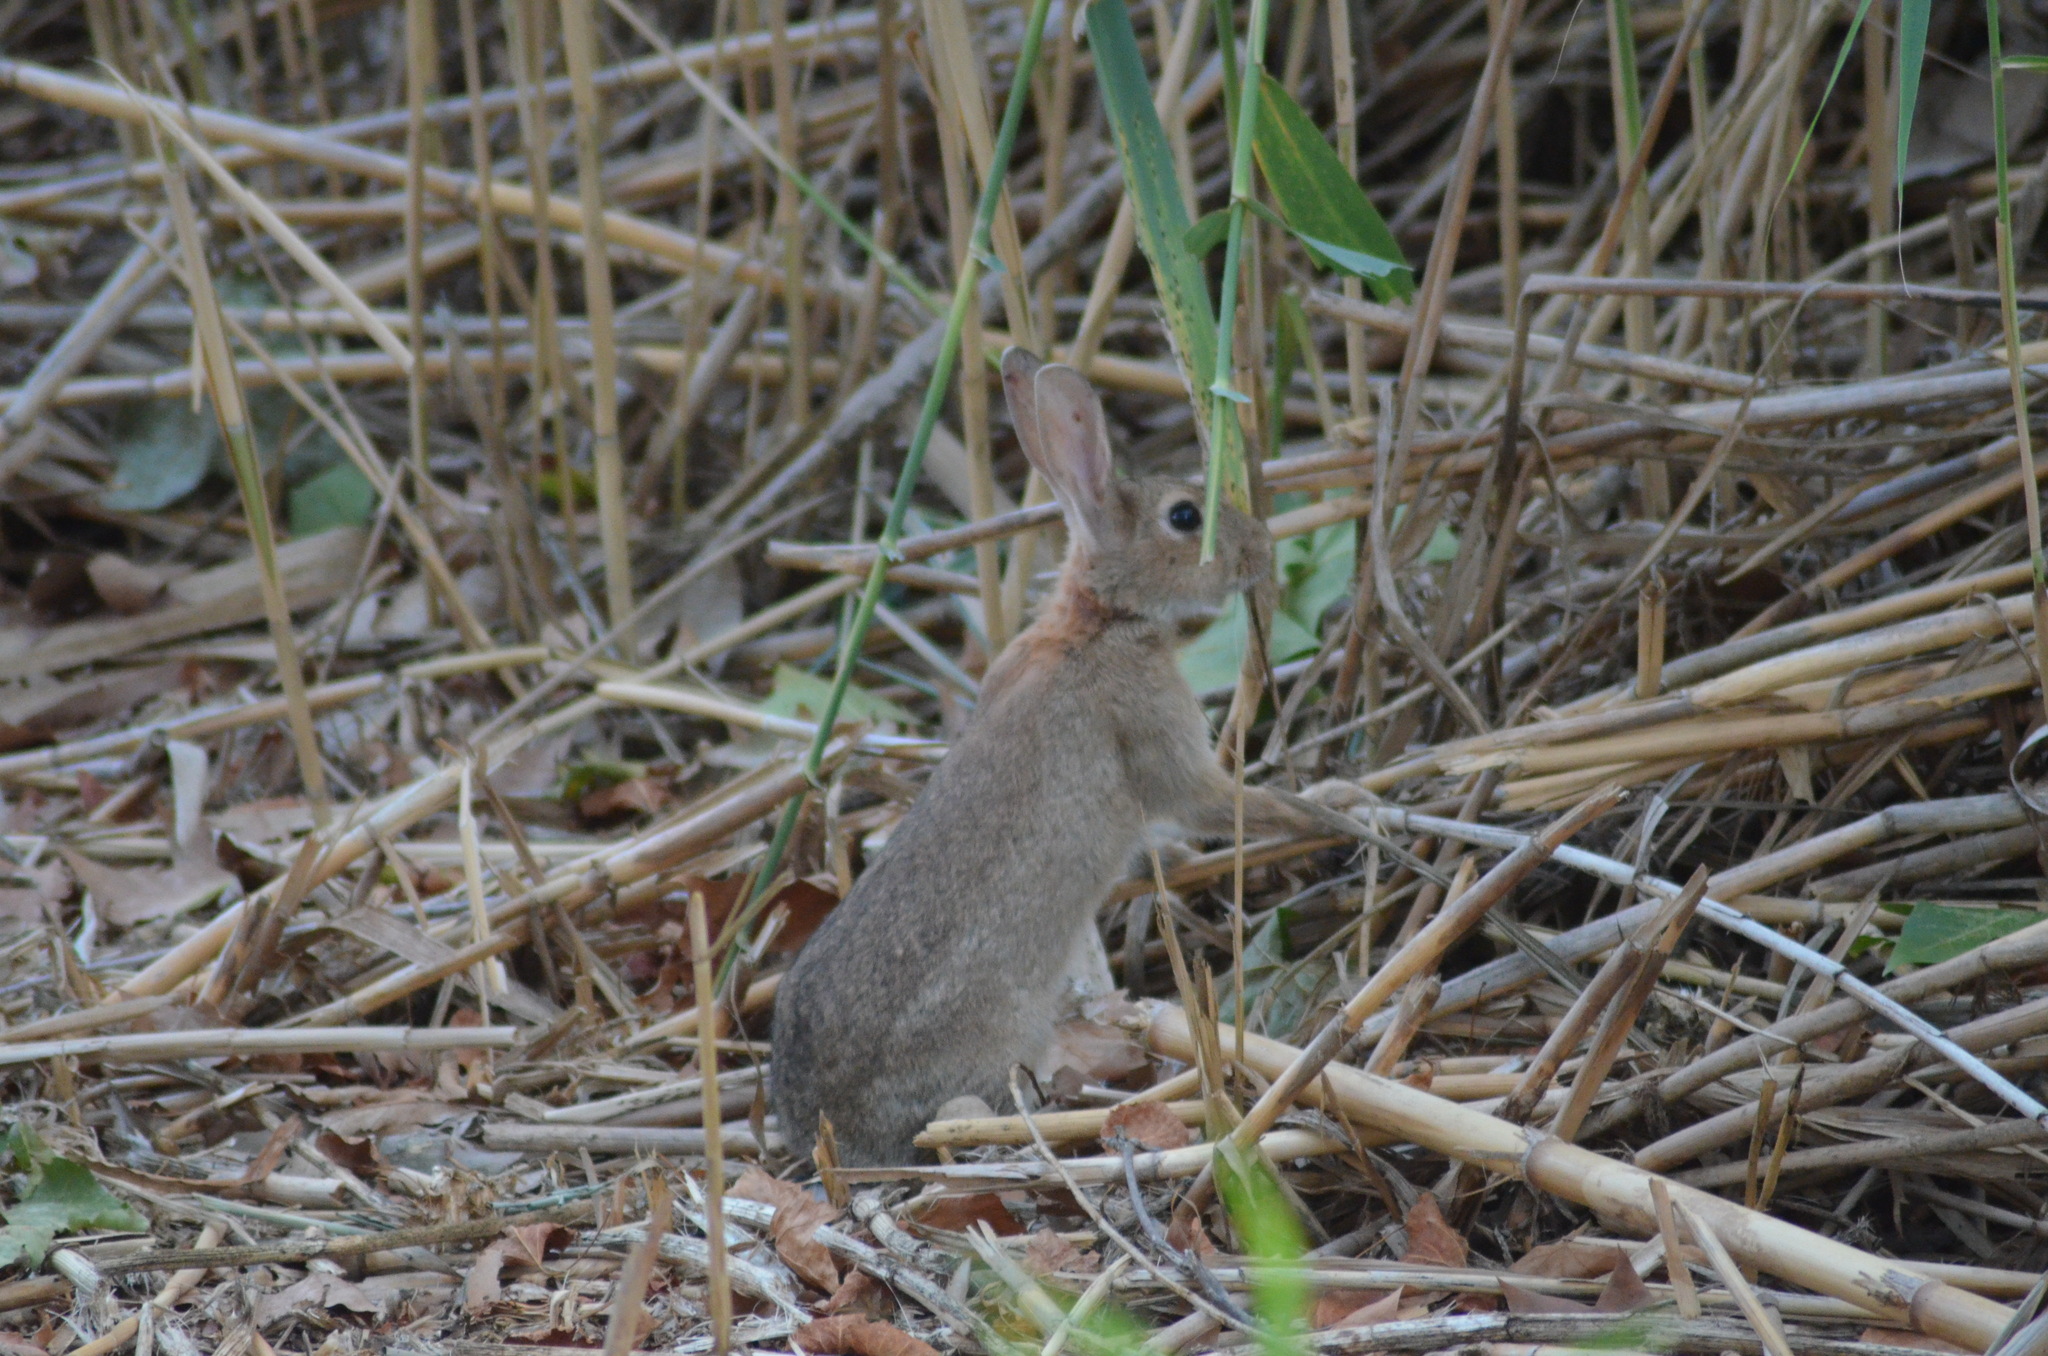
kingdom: Animalia
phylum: Chordata
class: Mammalia
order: Lagomorpha
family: Leporidae
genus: Oryctolagus
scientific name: Oryctolagus cuniculus
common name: European rabbit
